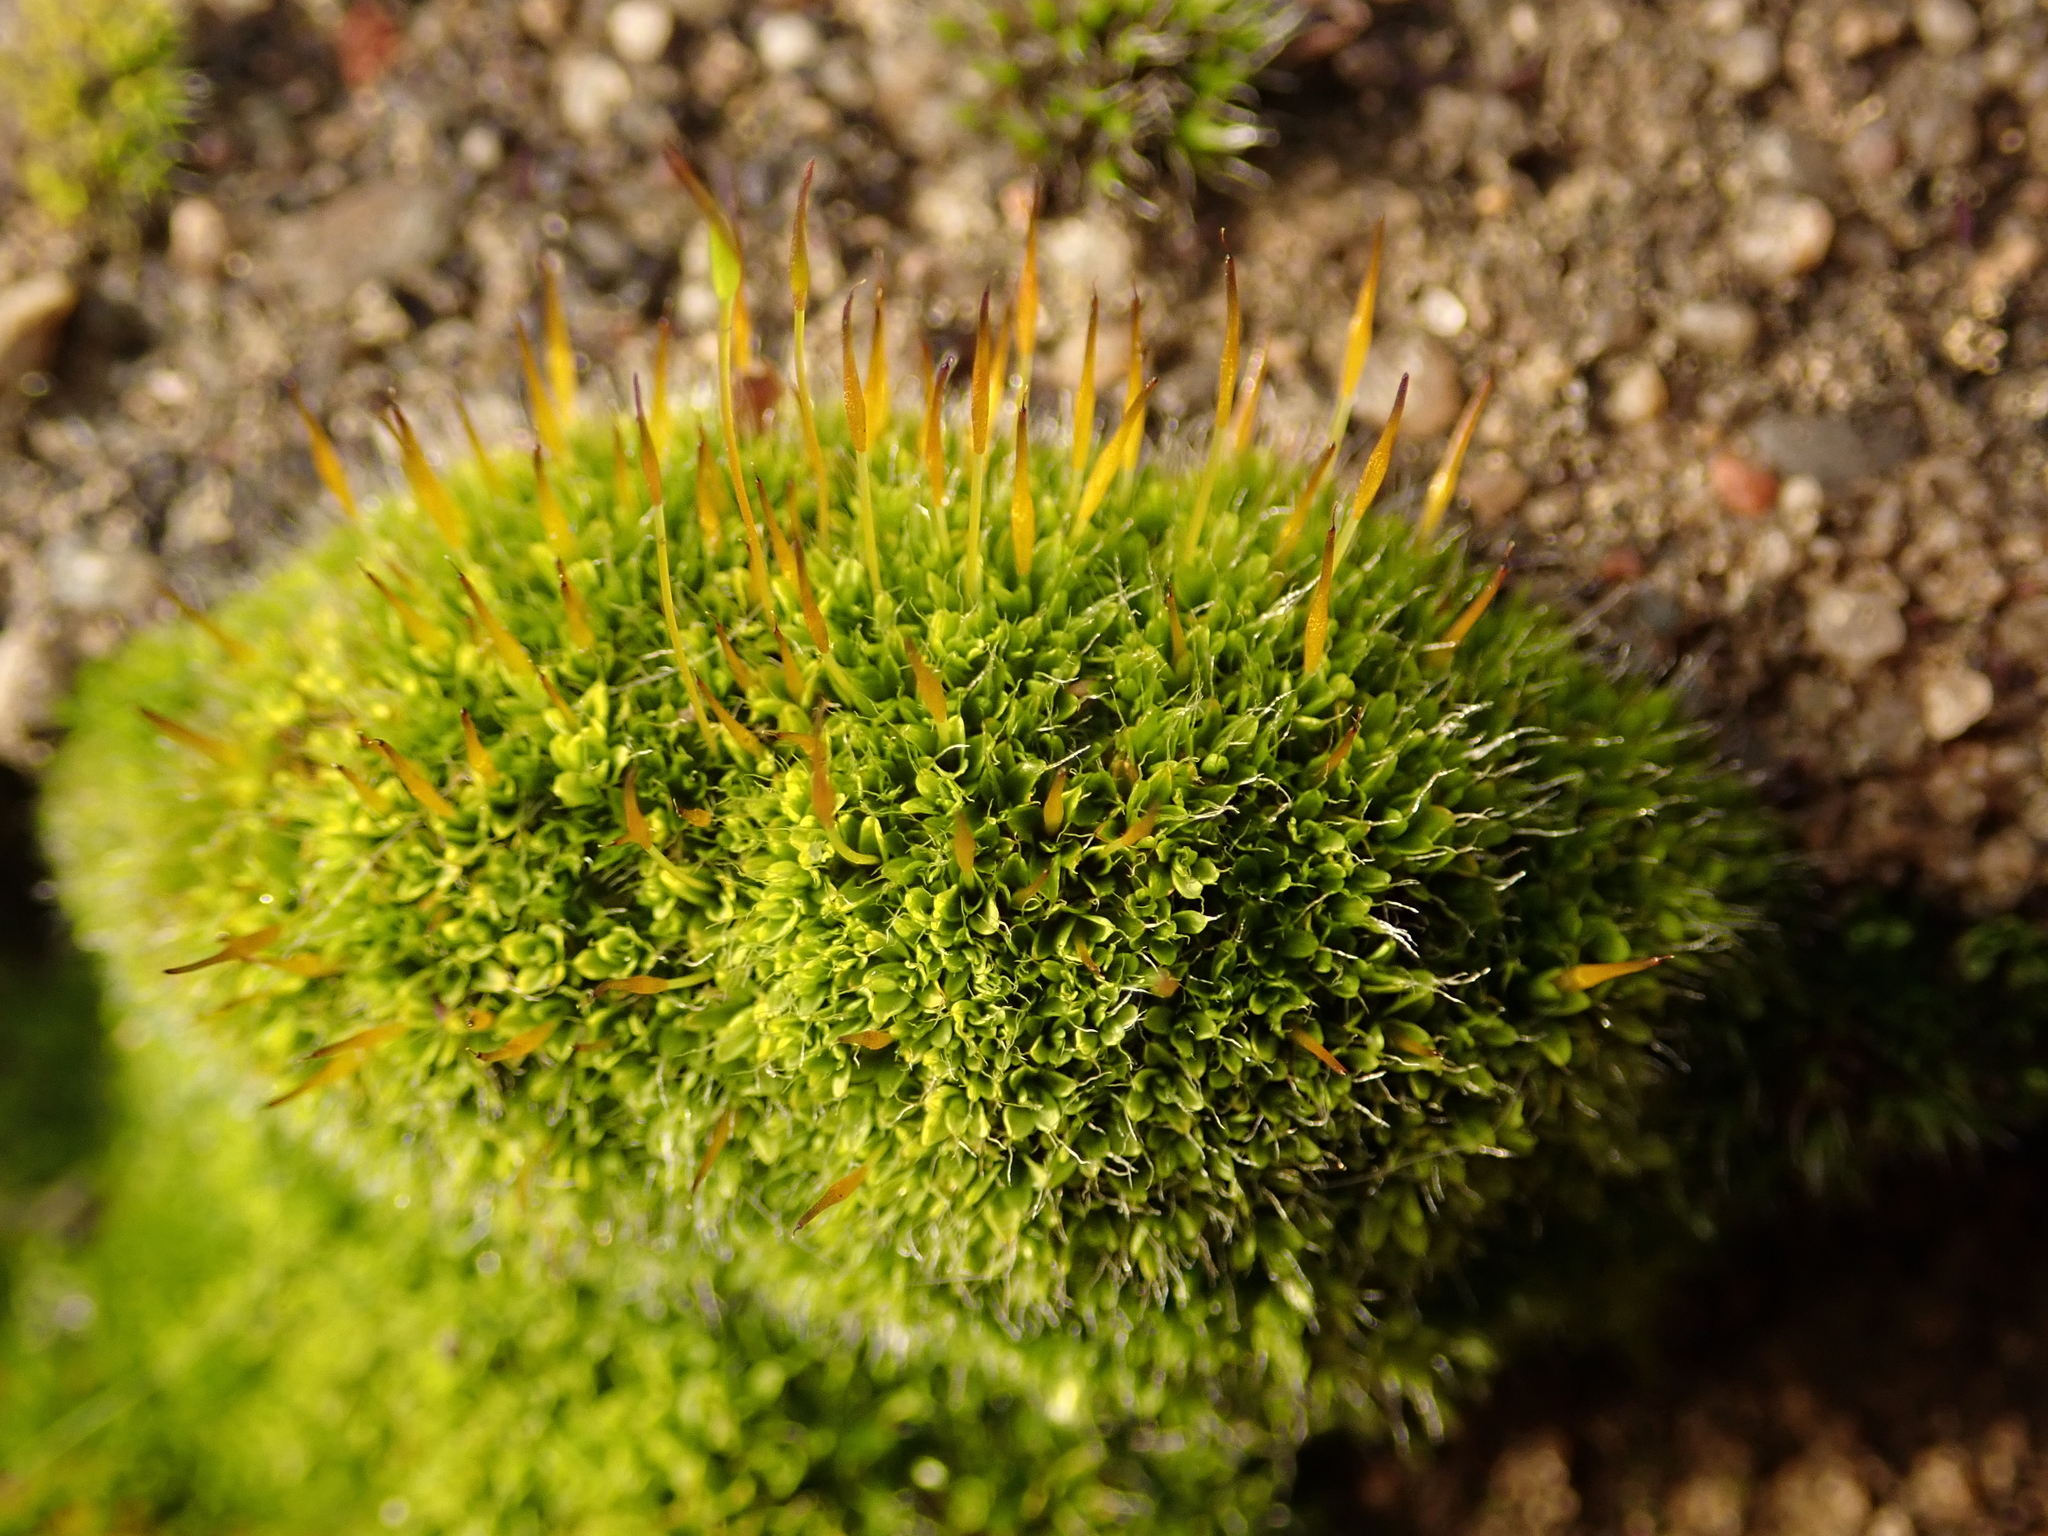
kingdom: Plantae
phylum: Bryophyta
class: Bryopsida
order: Pottiales
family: Pottiaceae
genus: Tortula
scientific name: Tortula muralis
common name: Wall screw-moss
